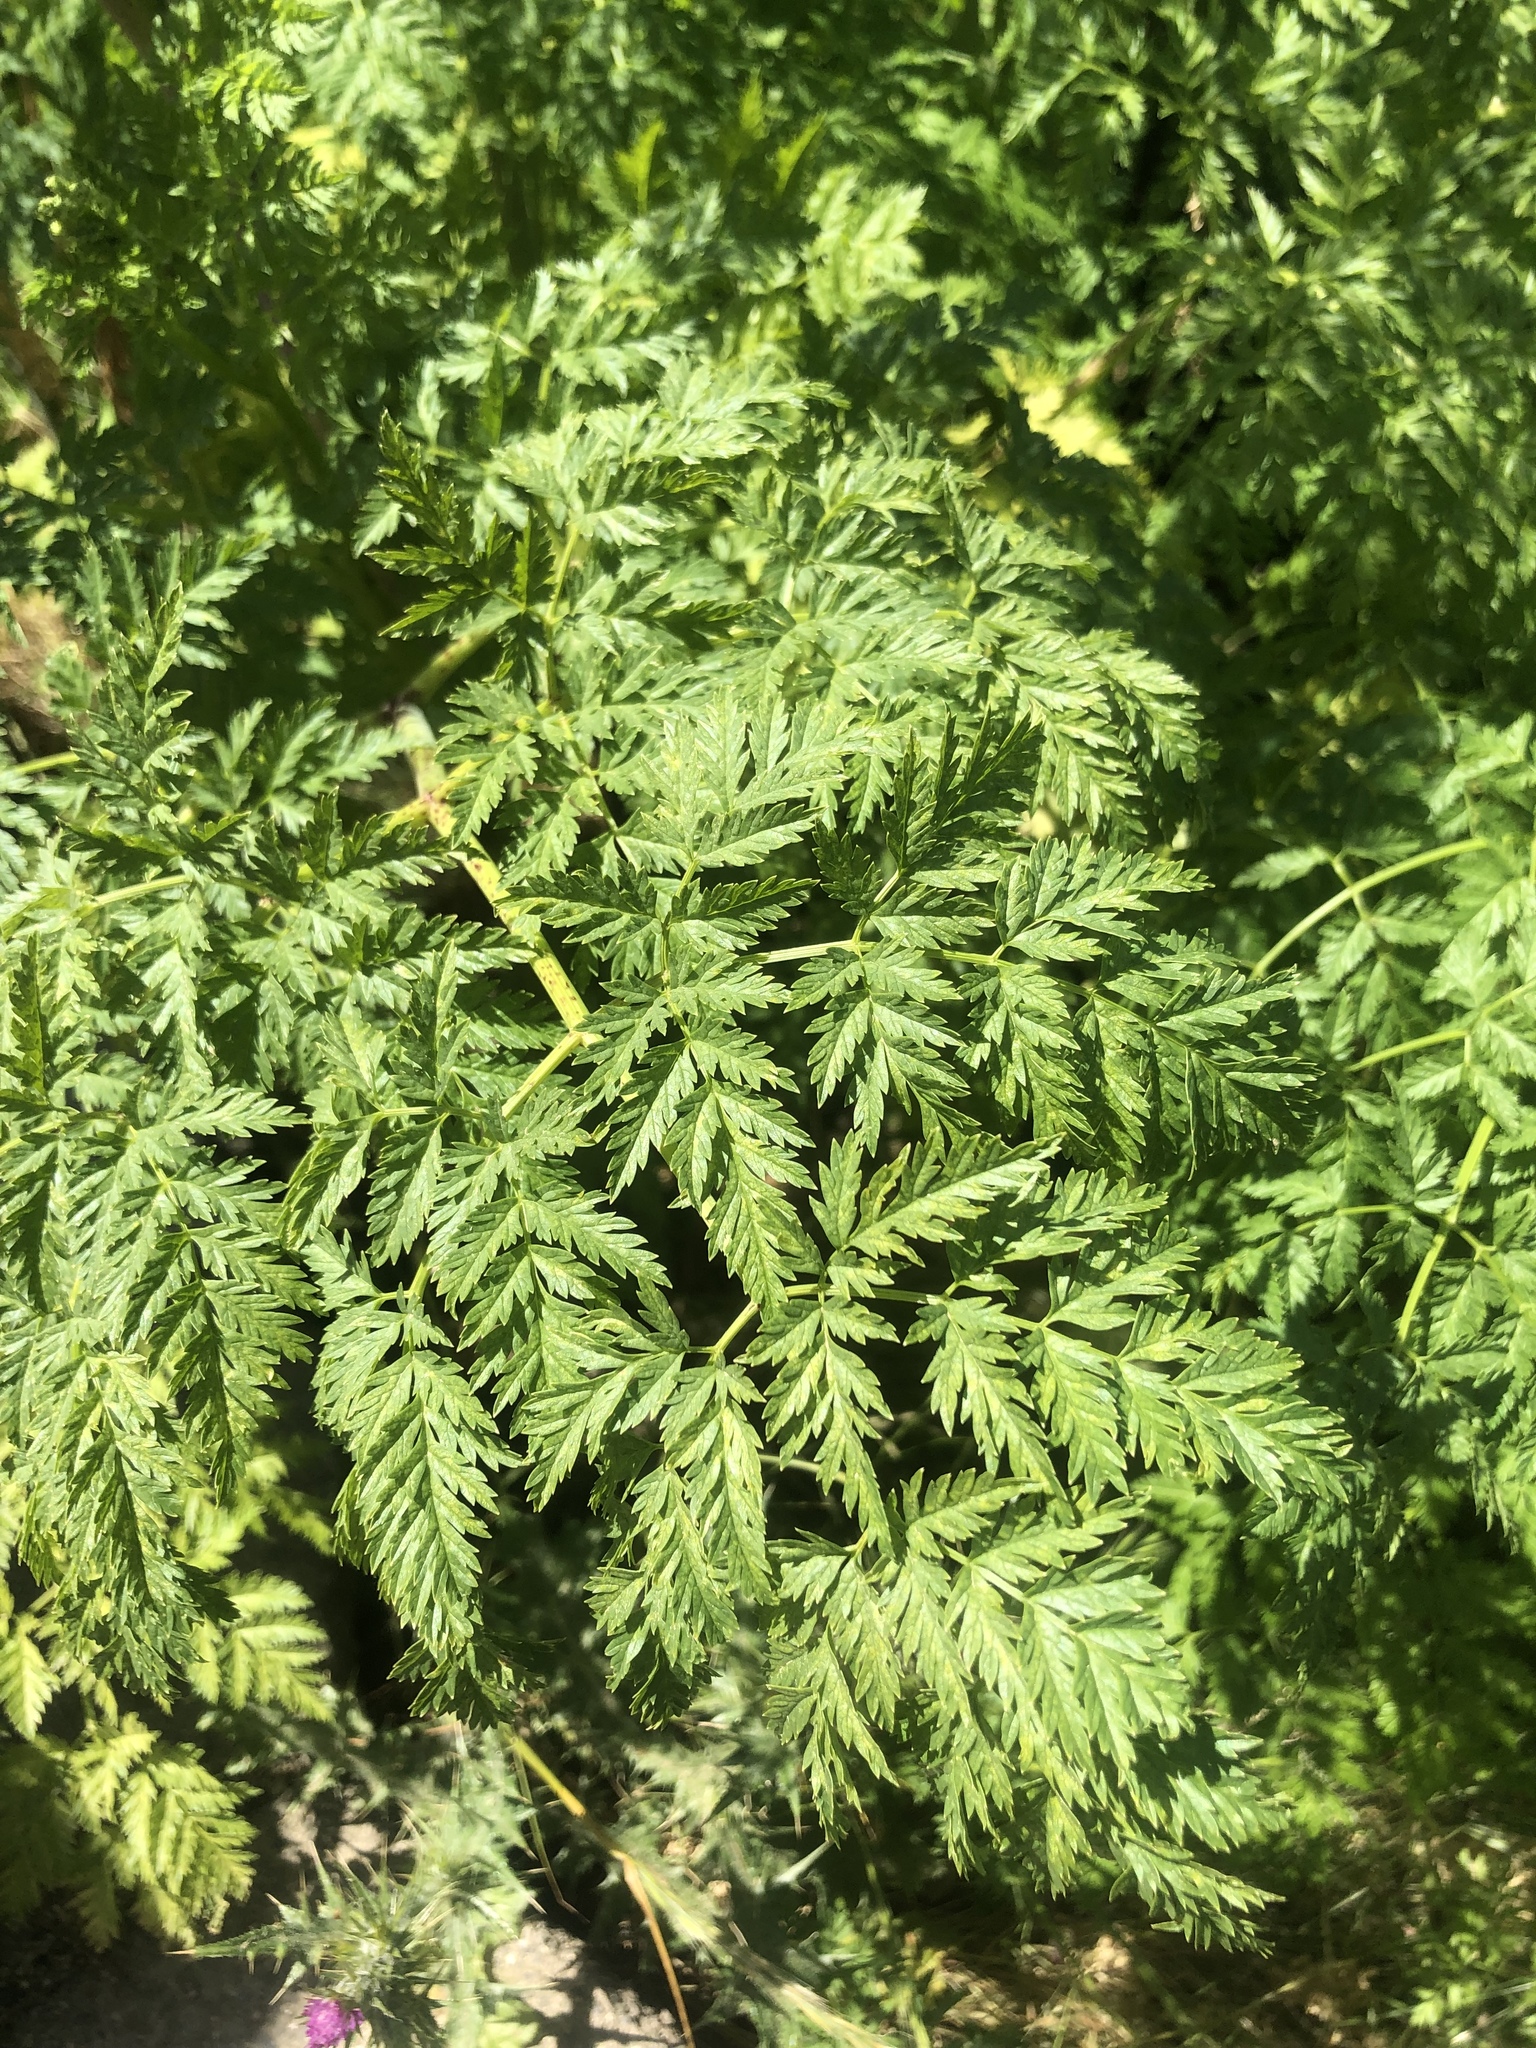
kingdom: Plantae
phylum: Tracheophyta
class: Magnoliopsida
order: Apiales
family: Apiaceae
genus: Conium
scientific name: Conium maculatum
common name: Hemlock
